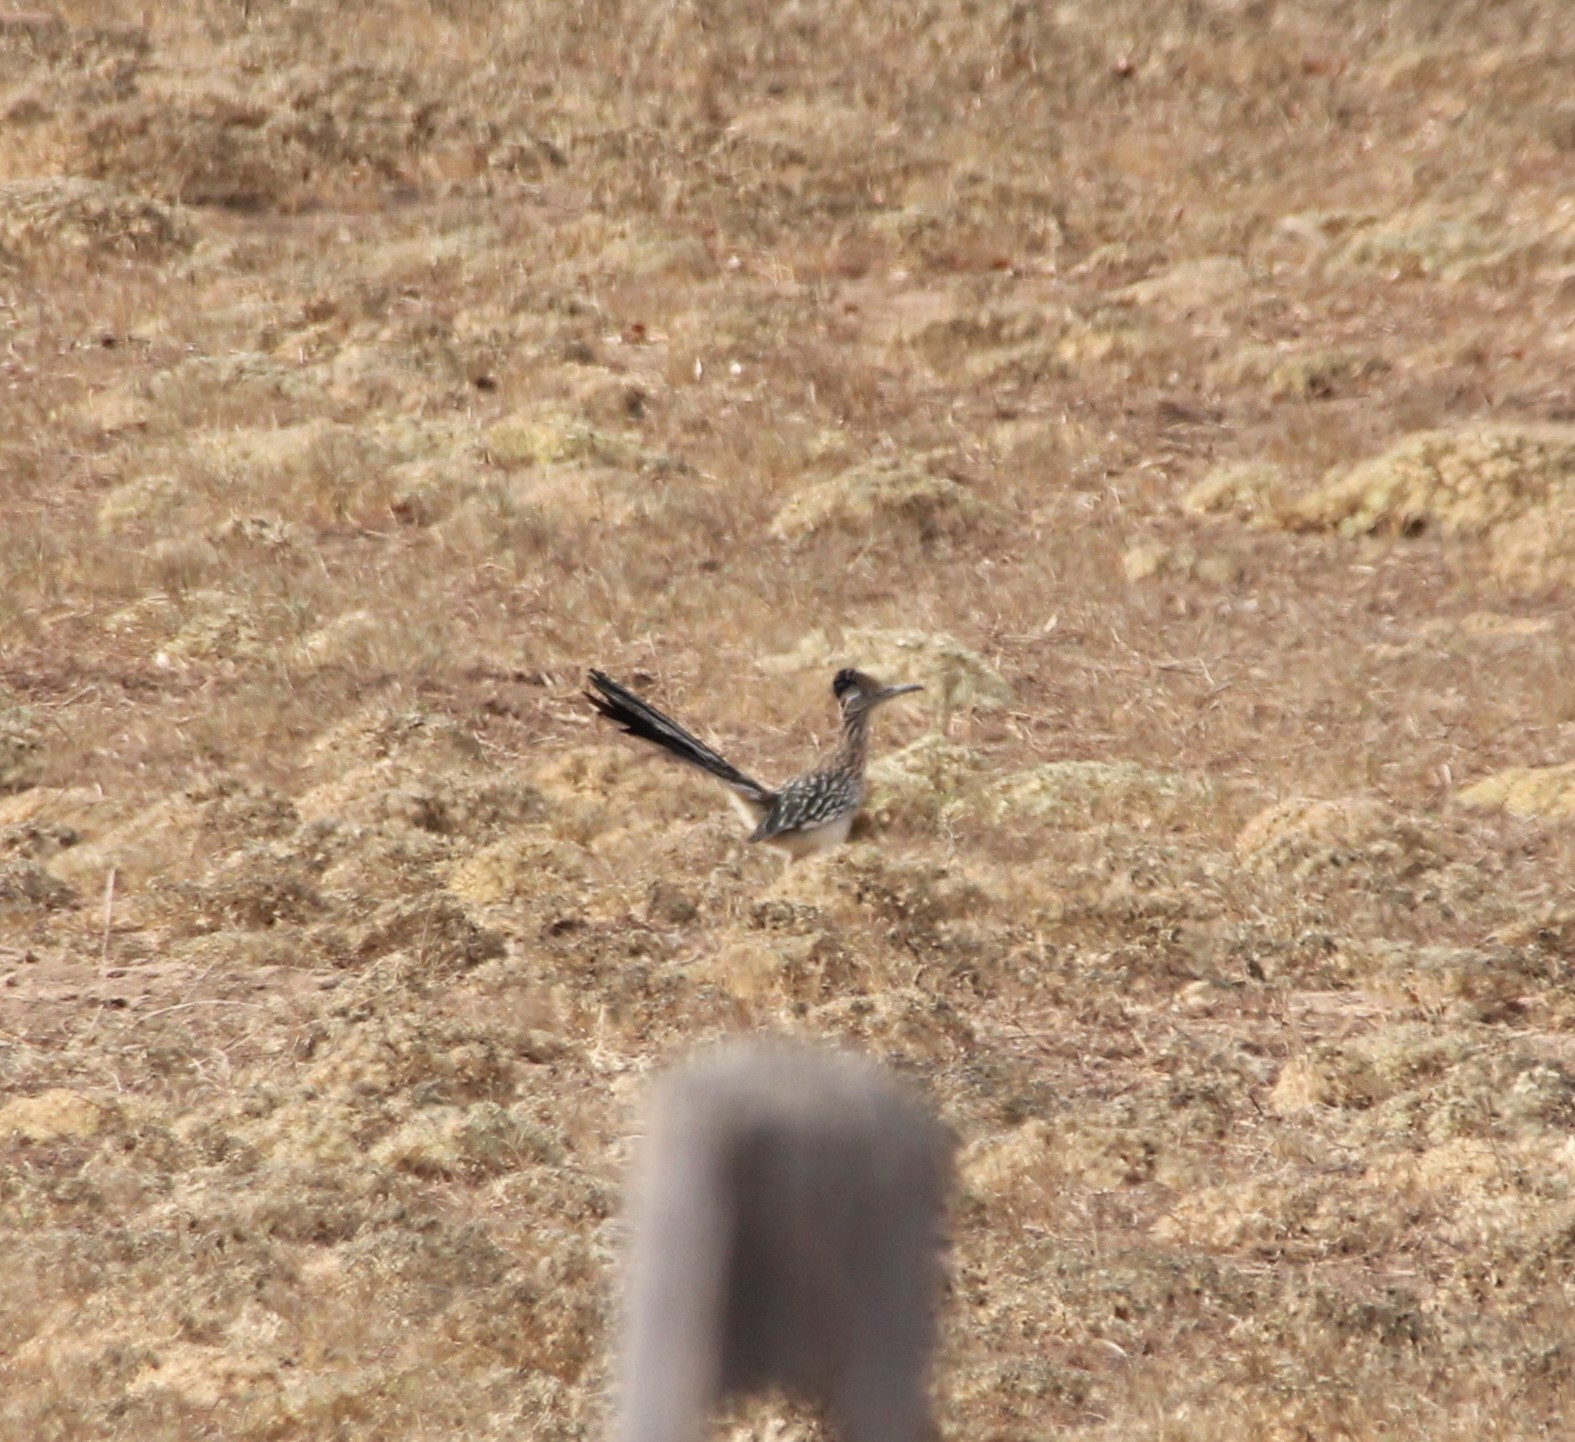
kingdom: Animalia
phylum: Chordata
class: Aves
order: Cuculiformes
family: Cuculidae
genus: Geococcyx
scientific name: Geococcyx californianus
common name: Greater roadrunner
